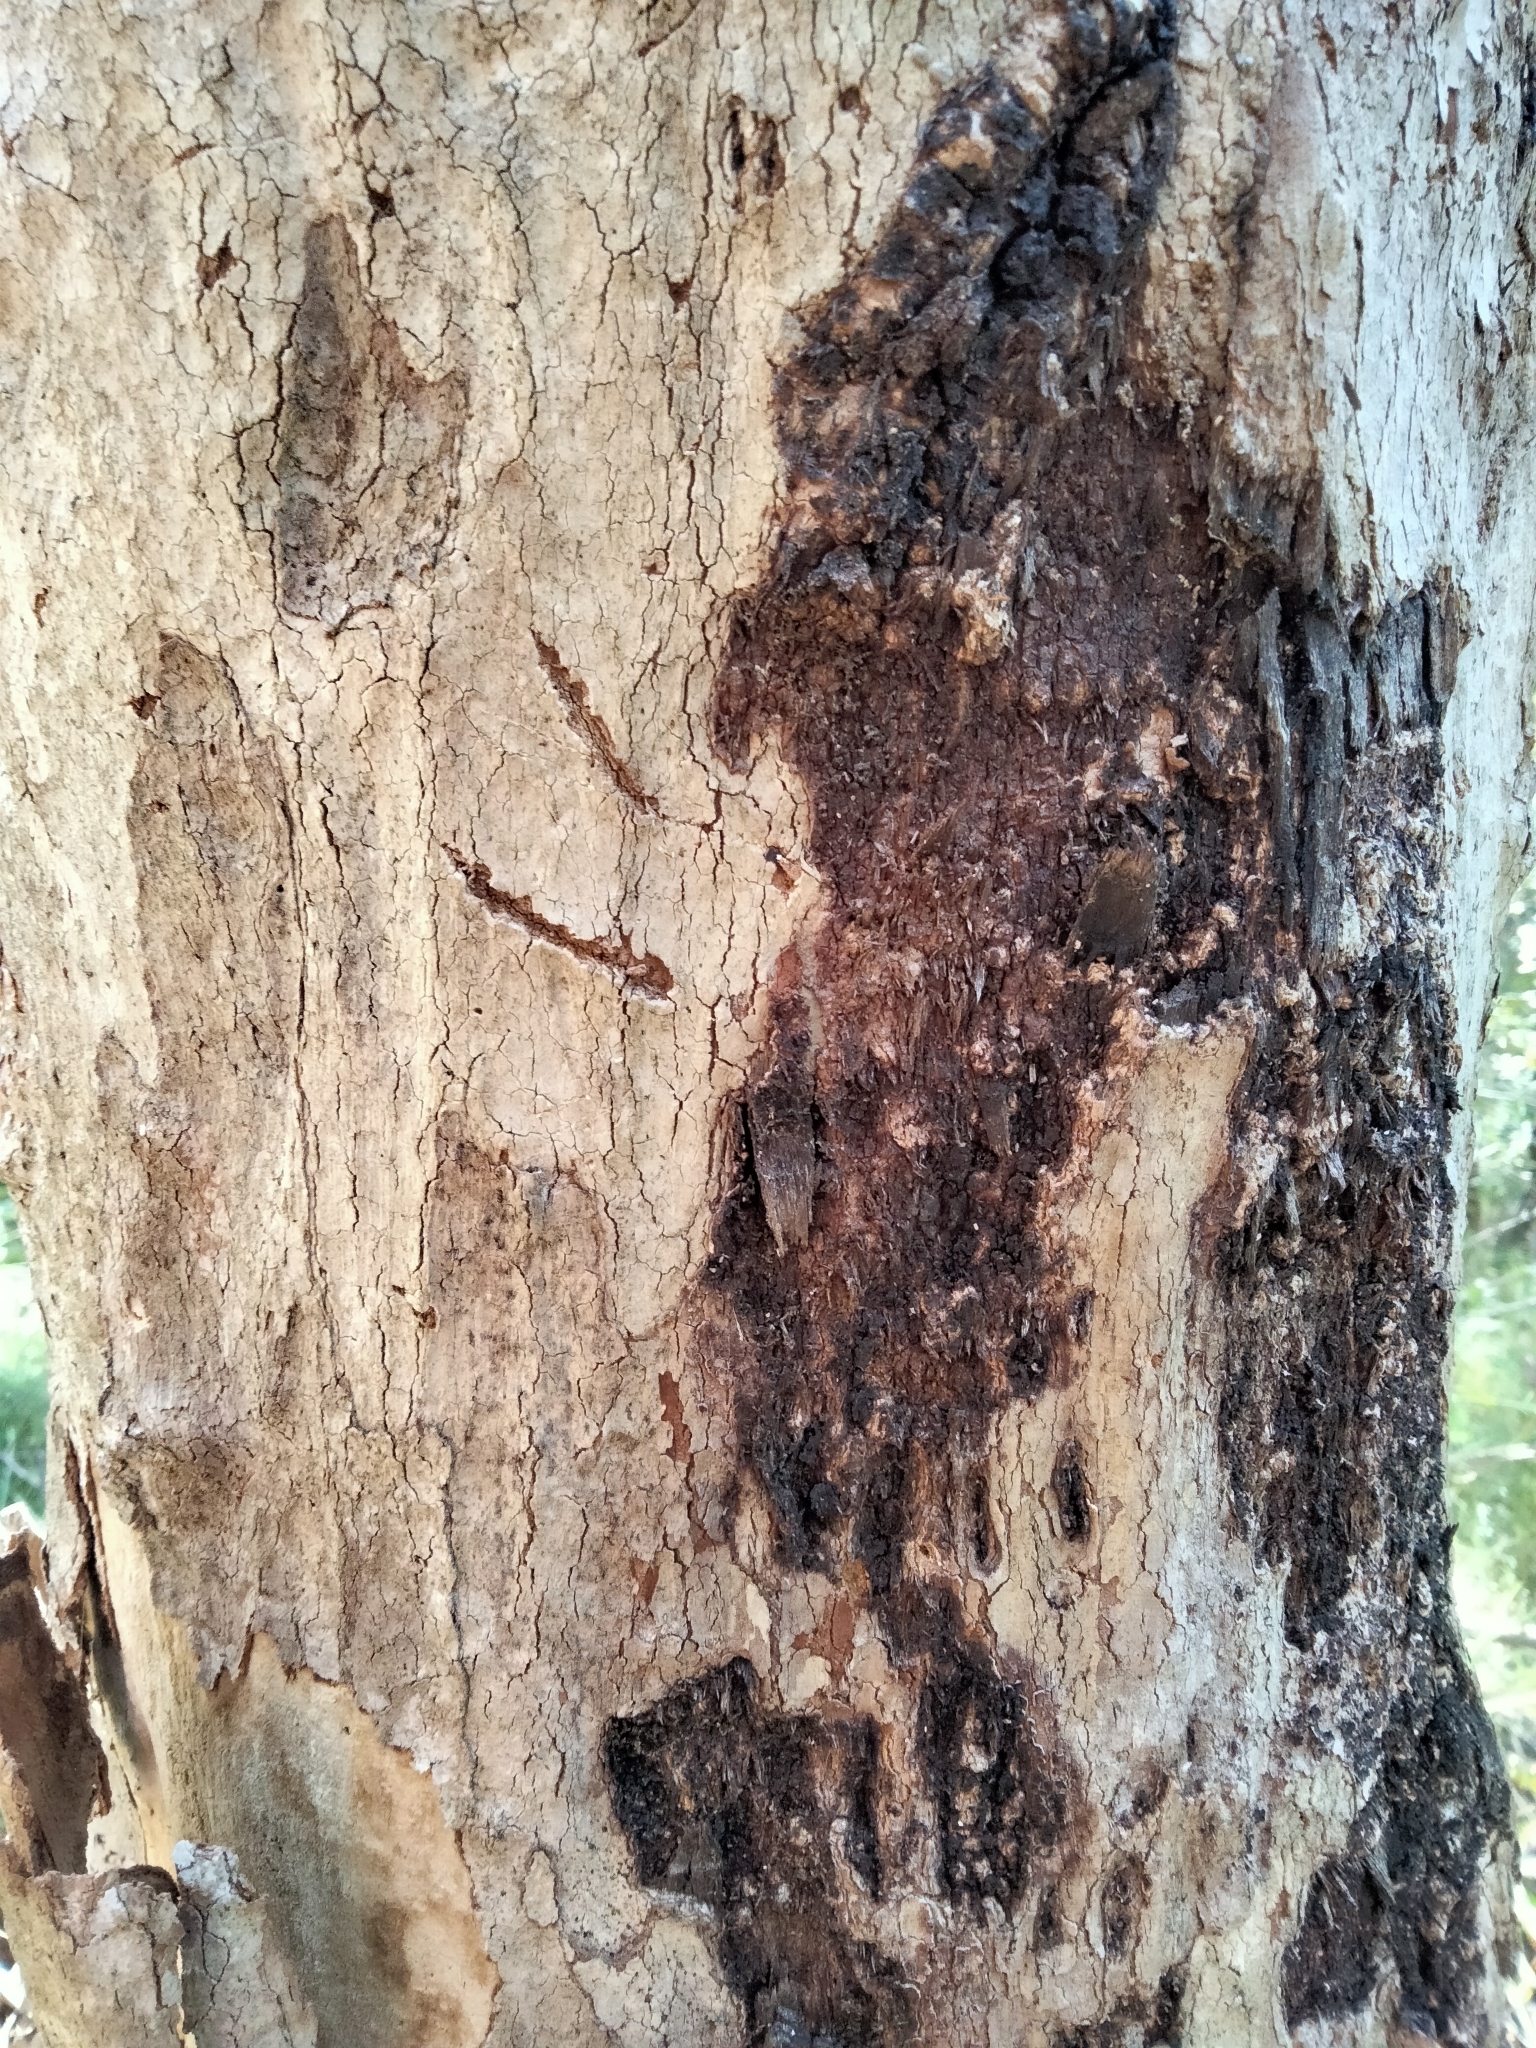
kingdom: Animalia
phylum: Chordata
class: Mammalia
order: Diprotodontia
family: Phascolarctidae
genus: Phascolarctos
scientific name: Phascolarctos cinereus
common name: Koala
